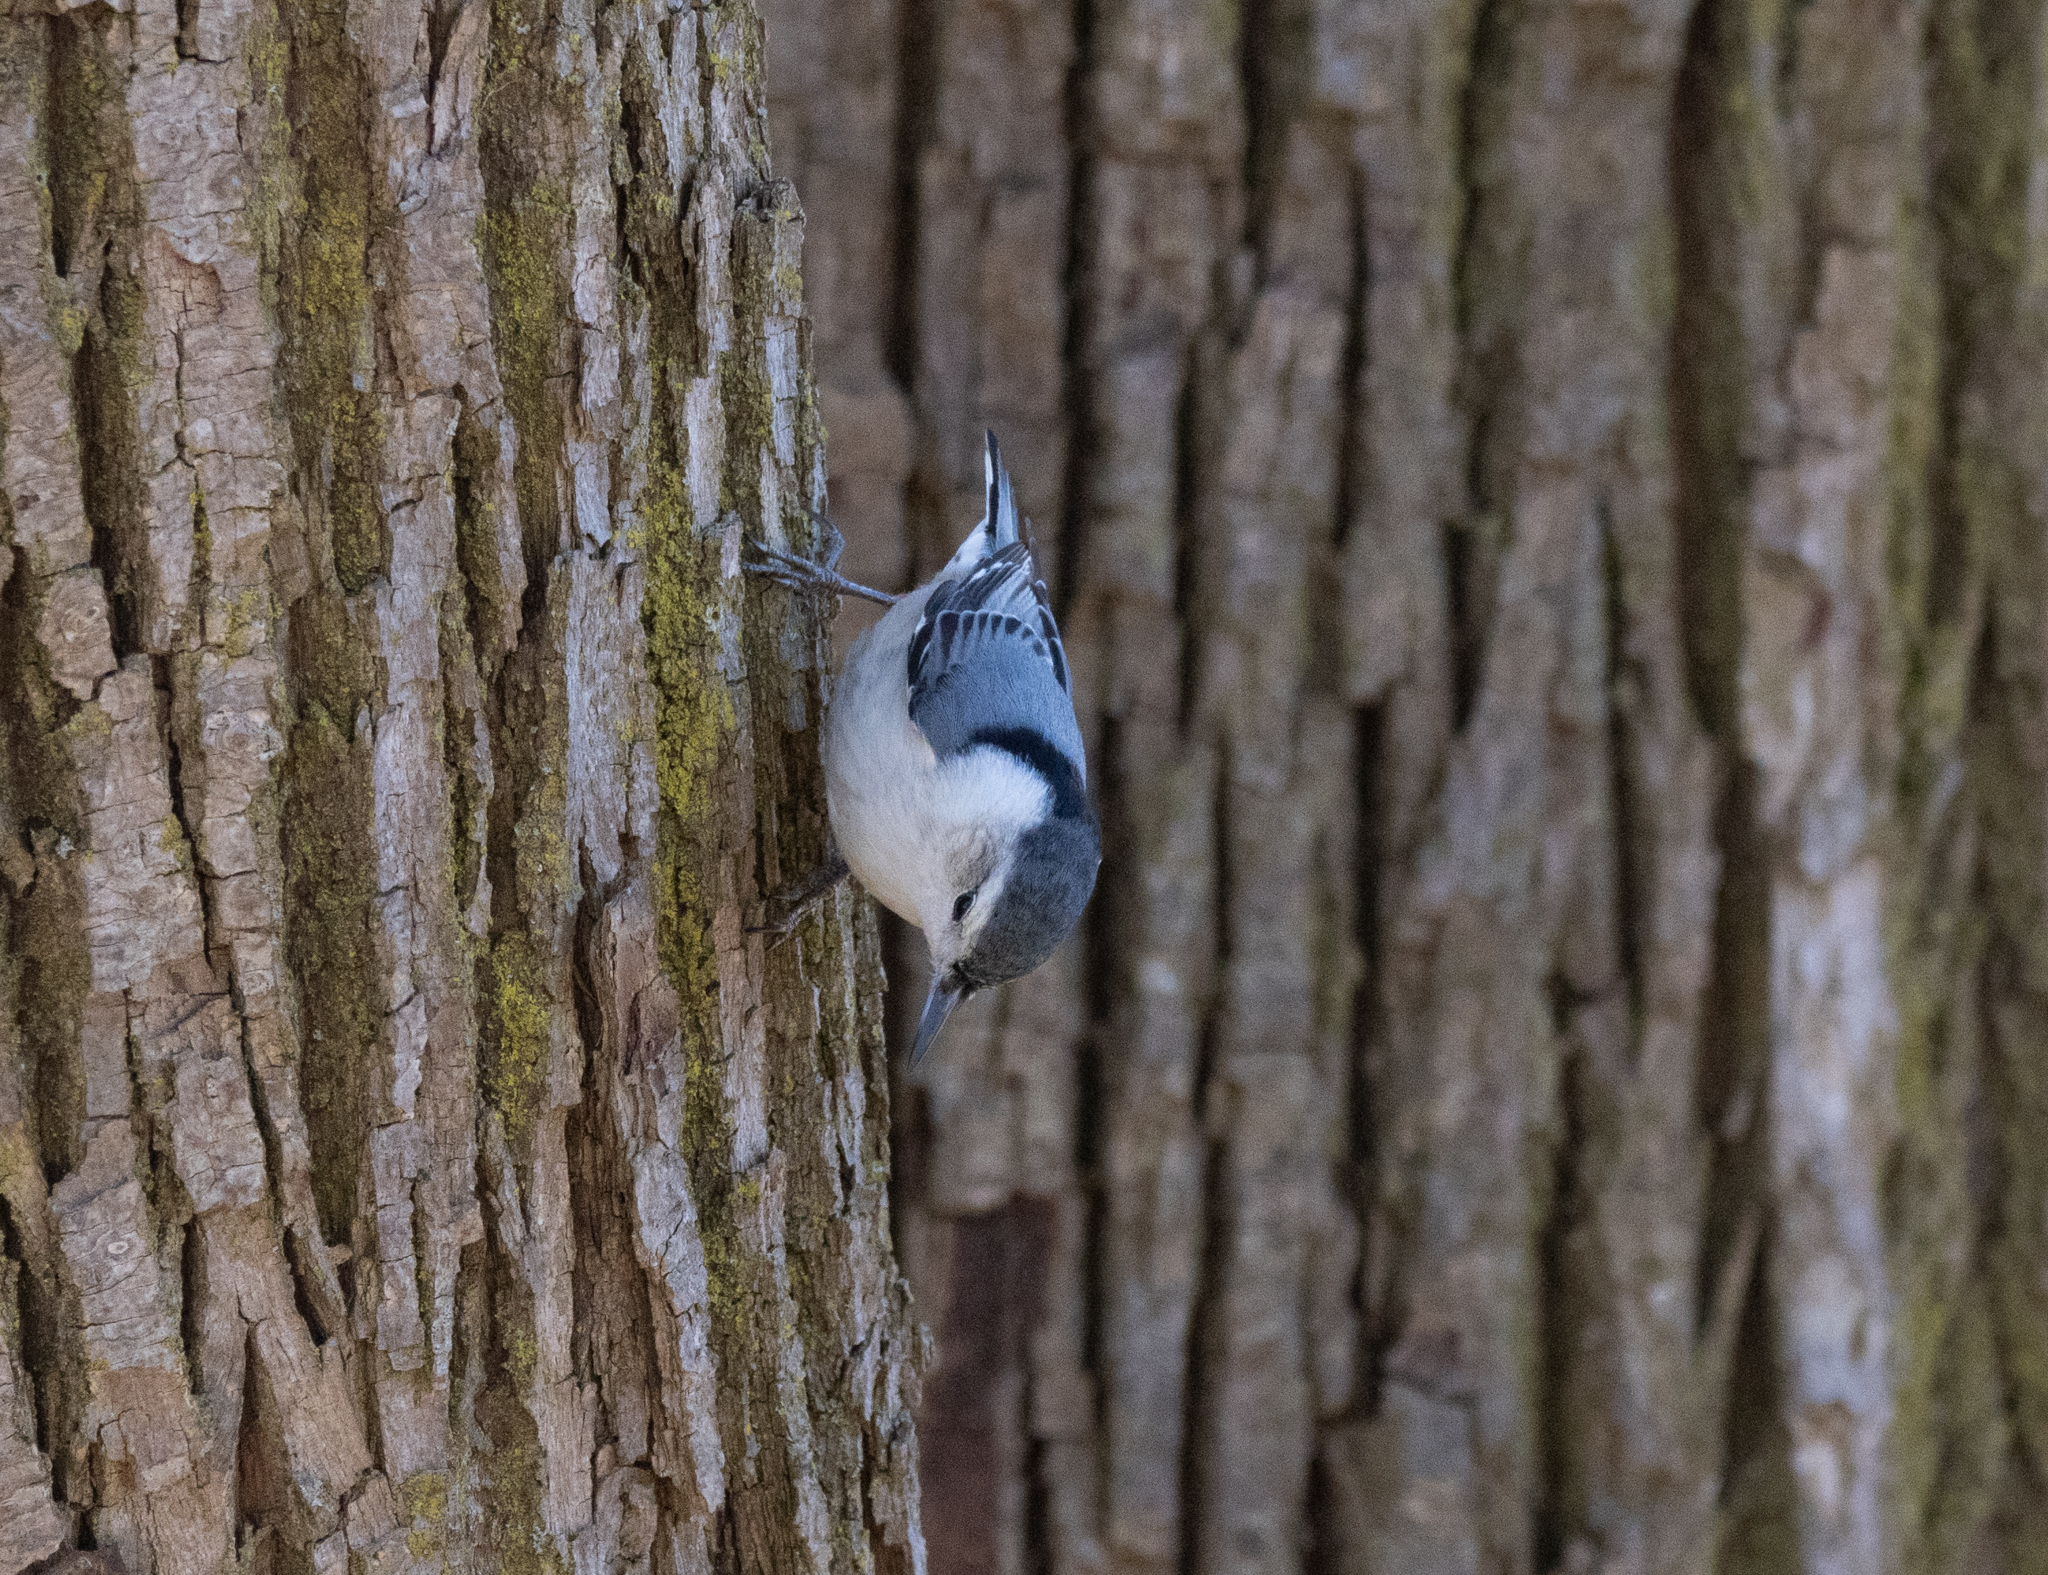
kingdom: Animalia
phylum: Chordata
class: Aves
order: Passeriformes
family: Sittidae
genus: Sitta
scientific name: Sitta carolinensis
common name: White-breasted nuthatch
